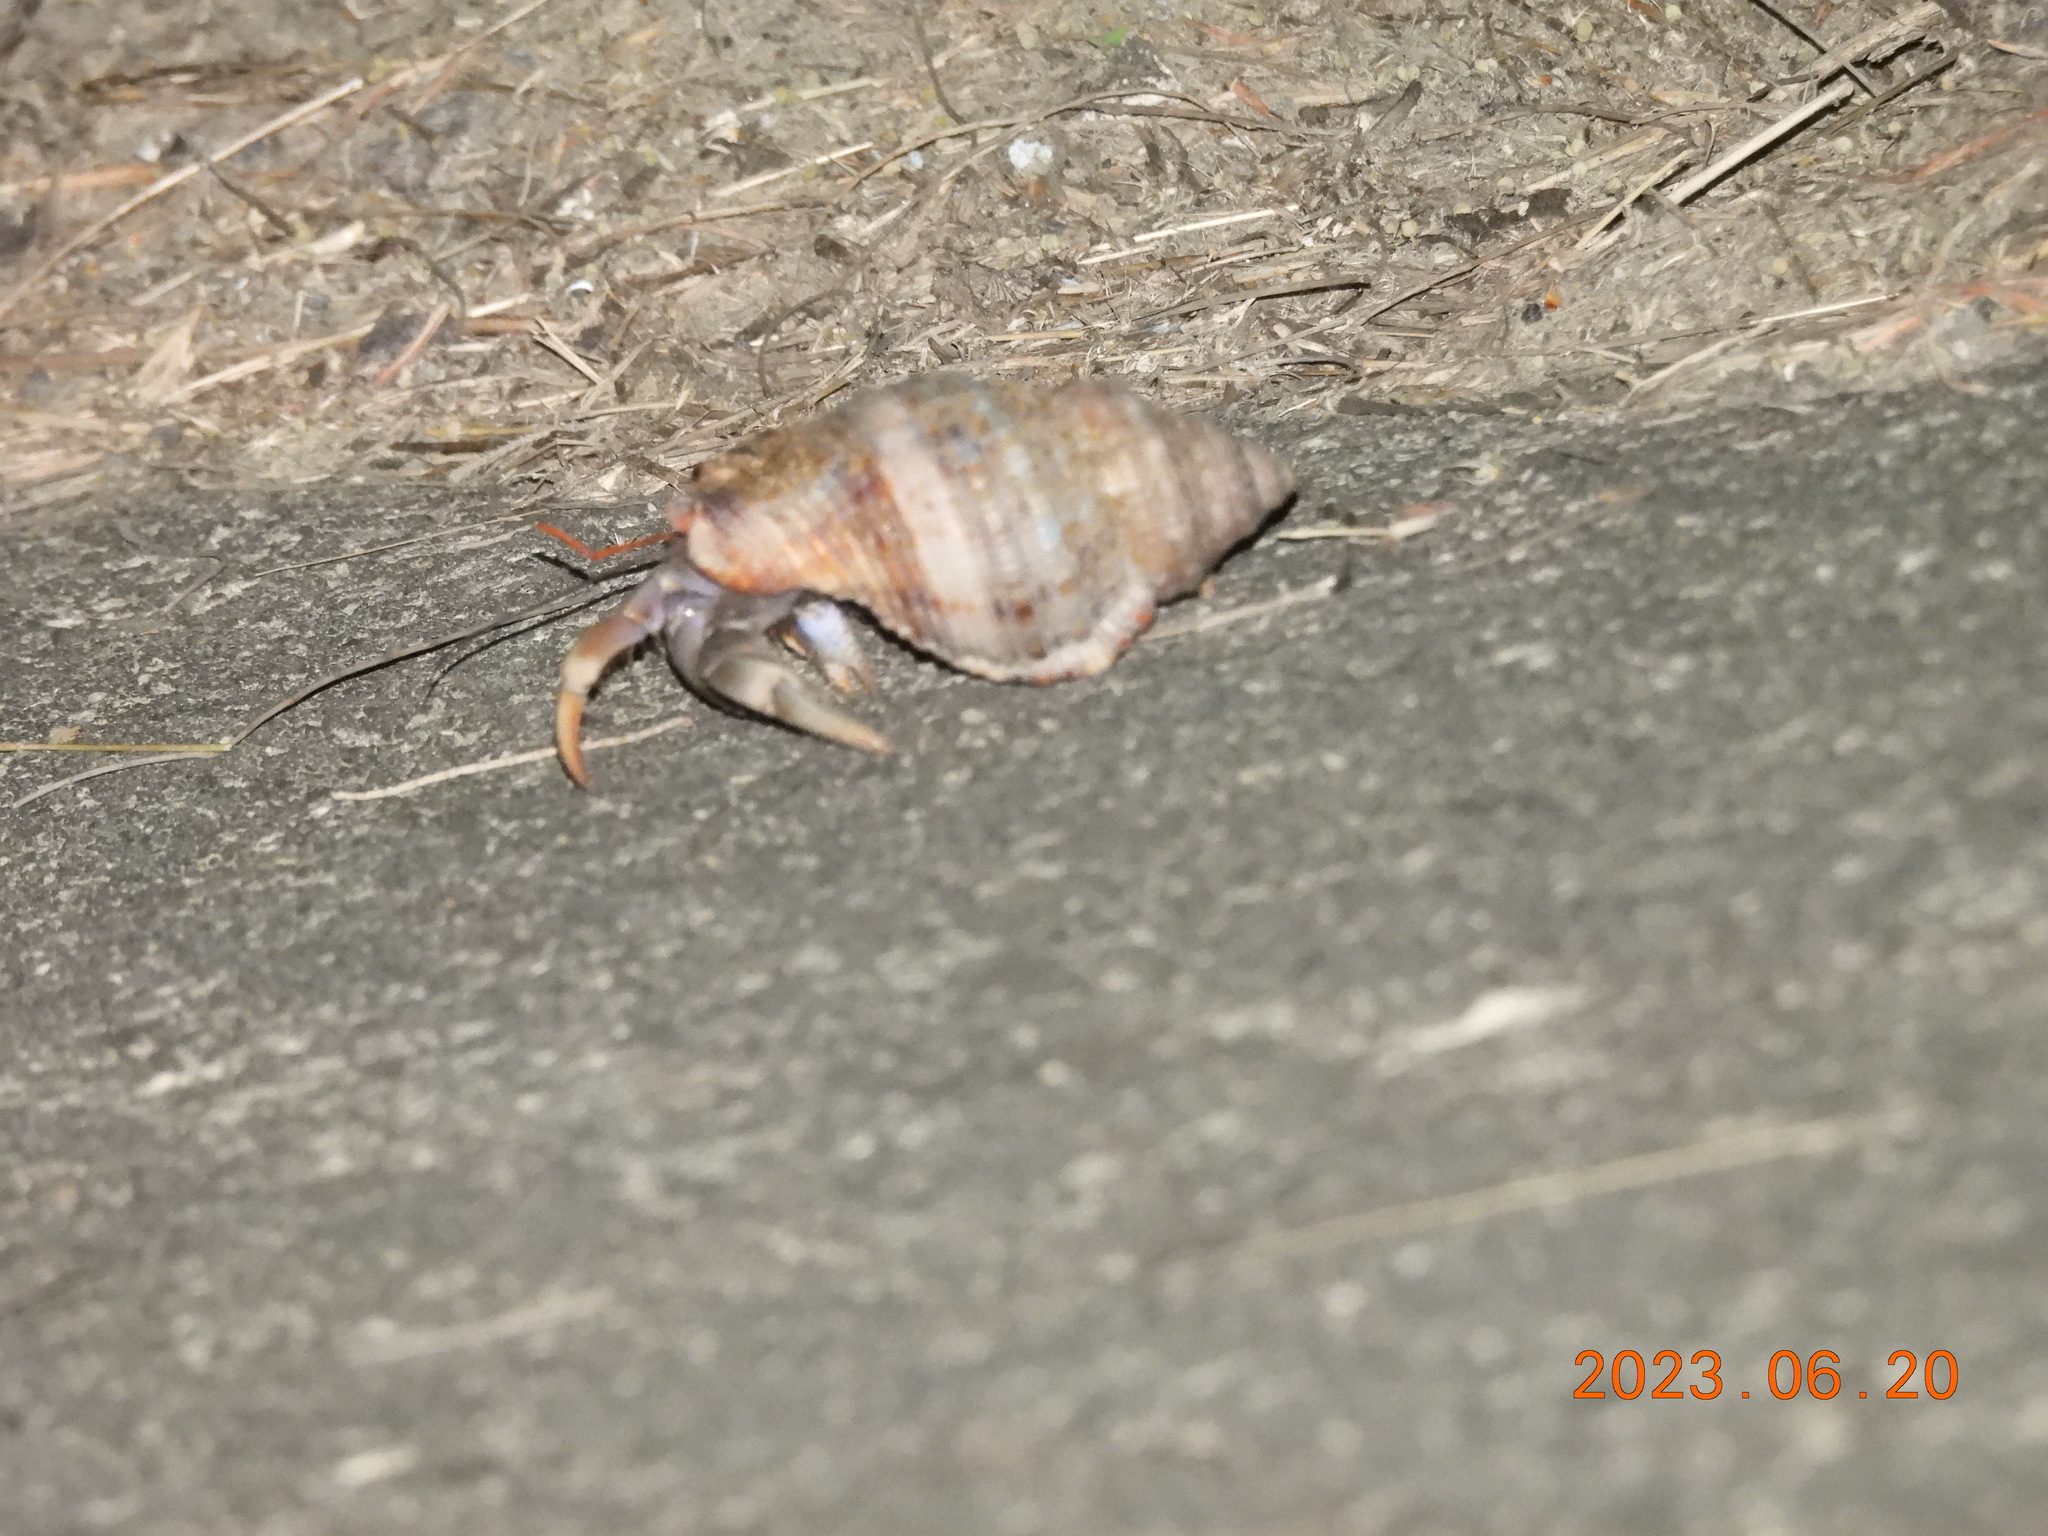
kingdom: Animalia
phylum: Arthropoda
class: Malacostraca
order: Decapoda
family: Coenobitidae
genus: Coenobita
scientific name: Coenobita violascens
